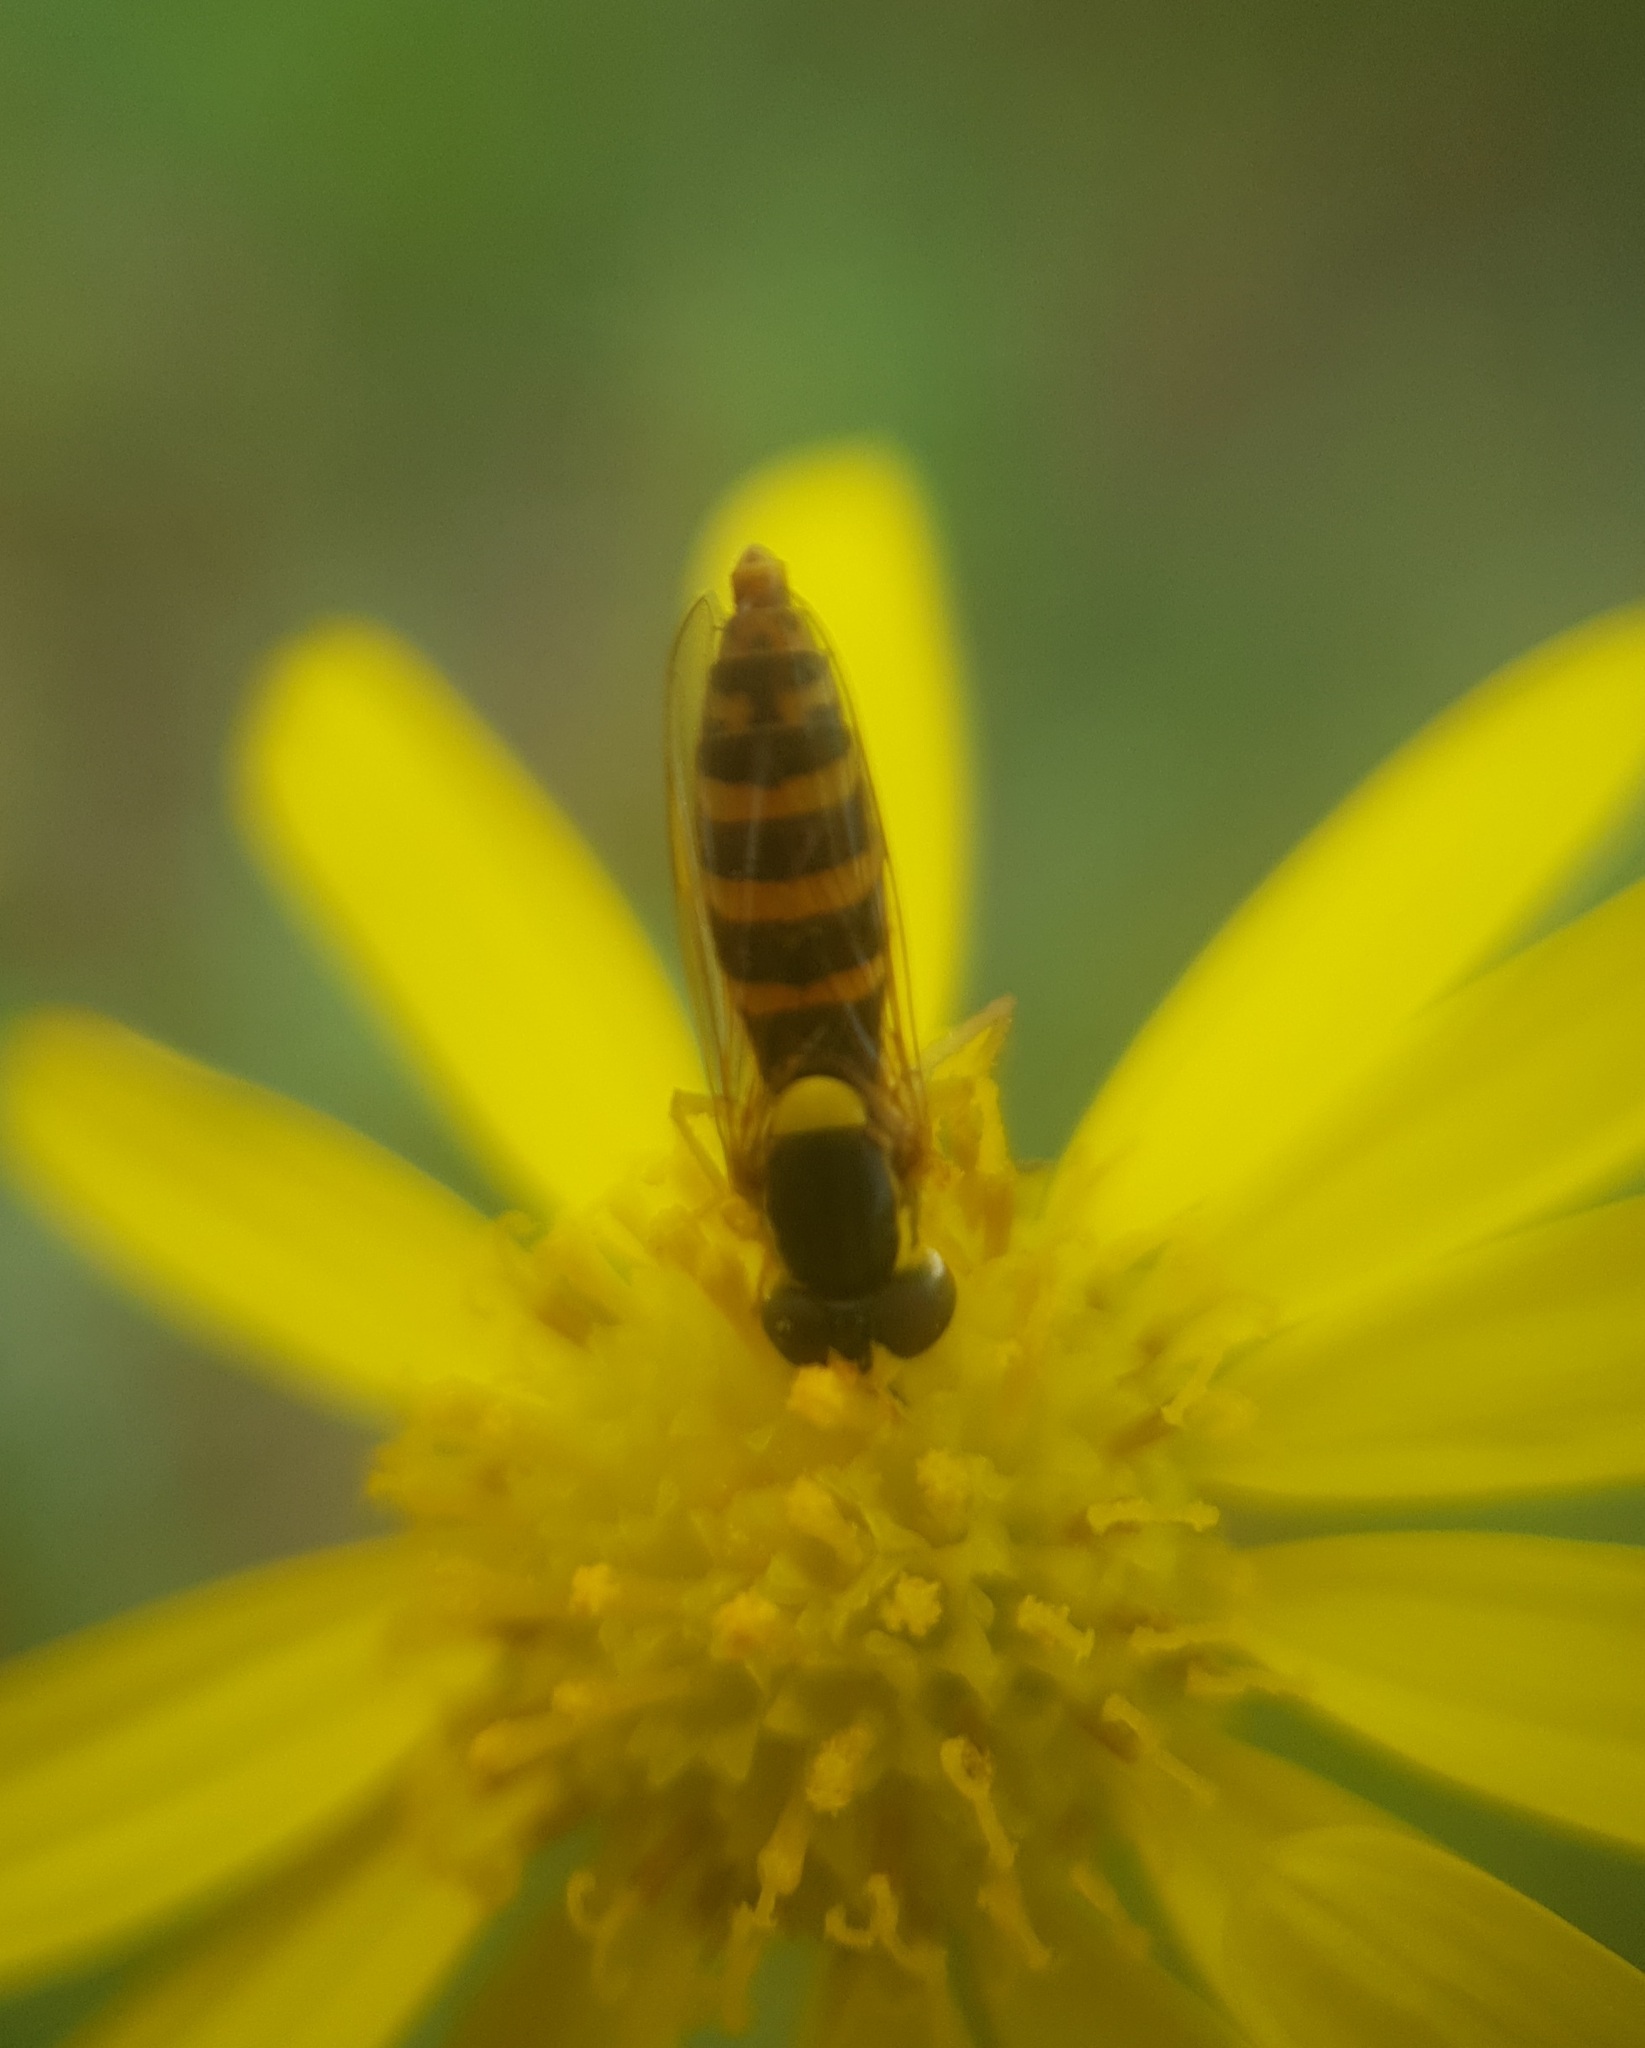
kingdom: Animalia
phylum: Arthropoda
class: Insecta
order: Diptera
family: Syrphidae
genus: Sphaerophoria
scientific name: Sphaerophoria
